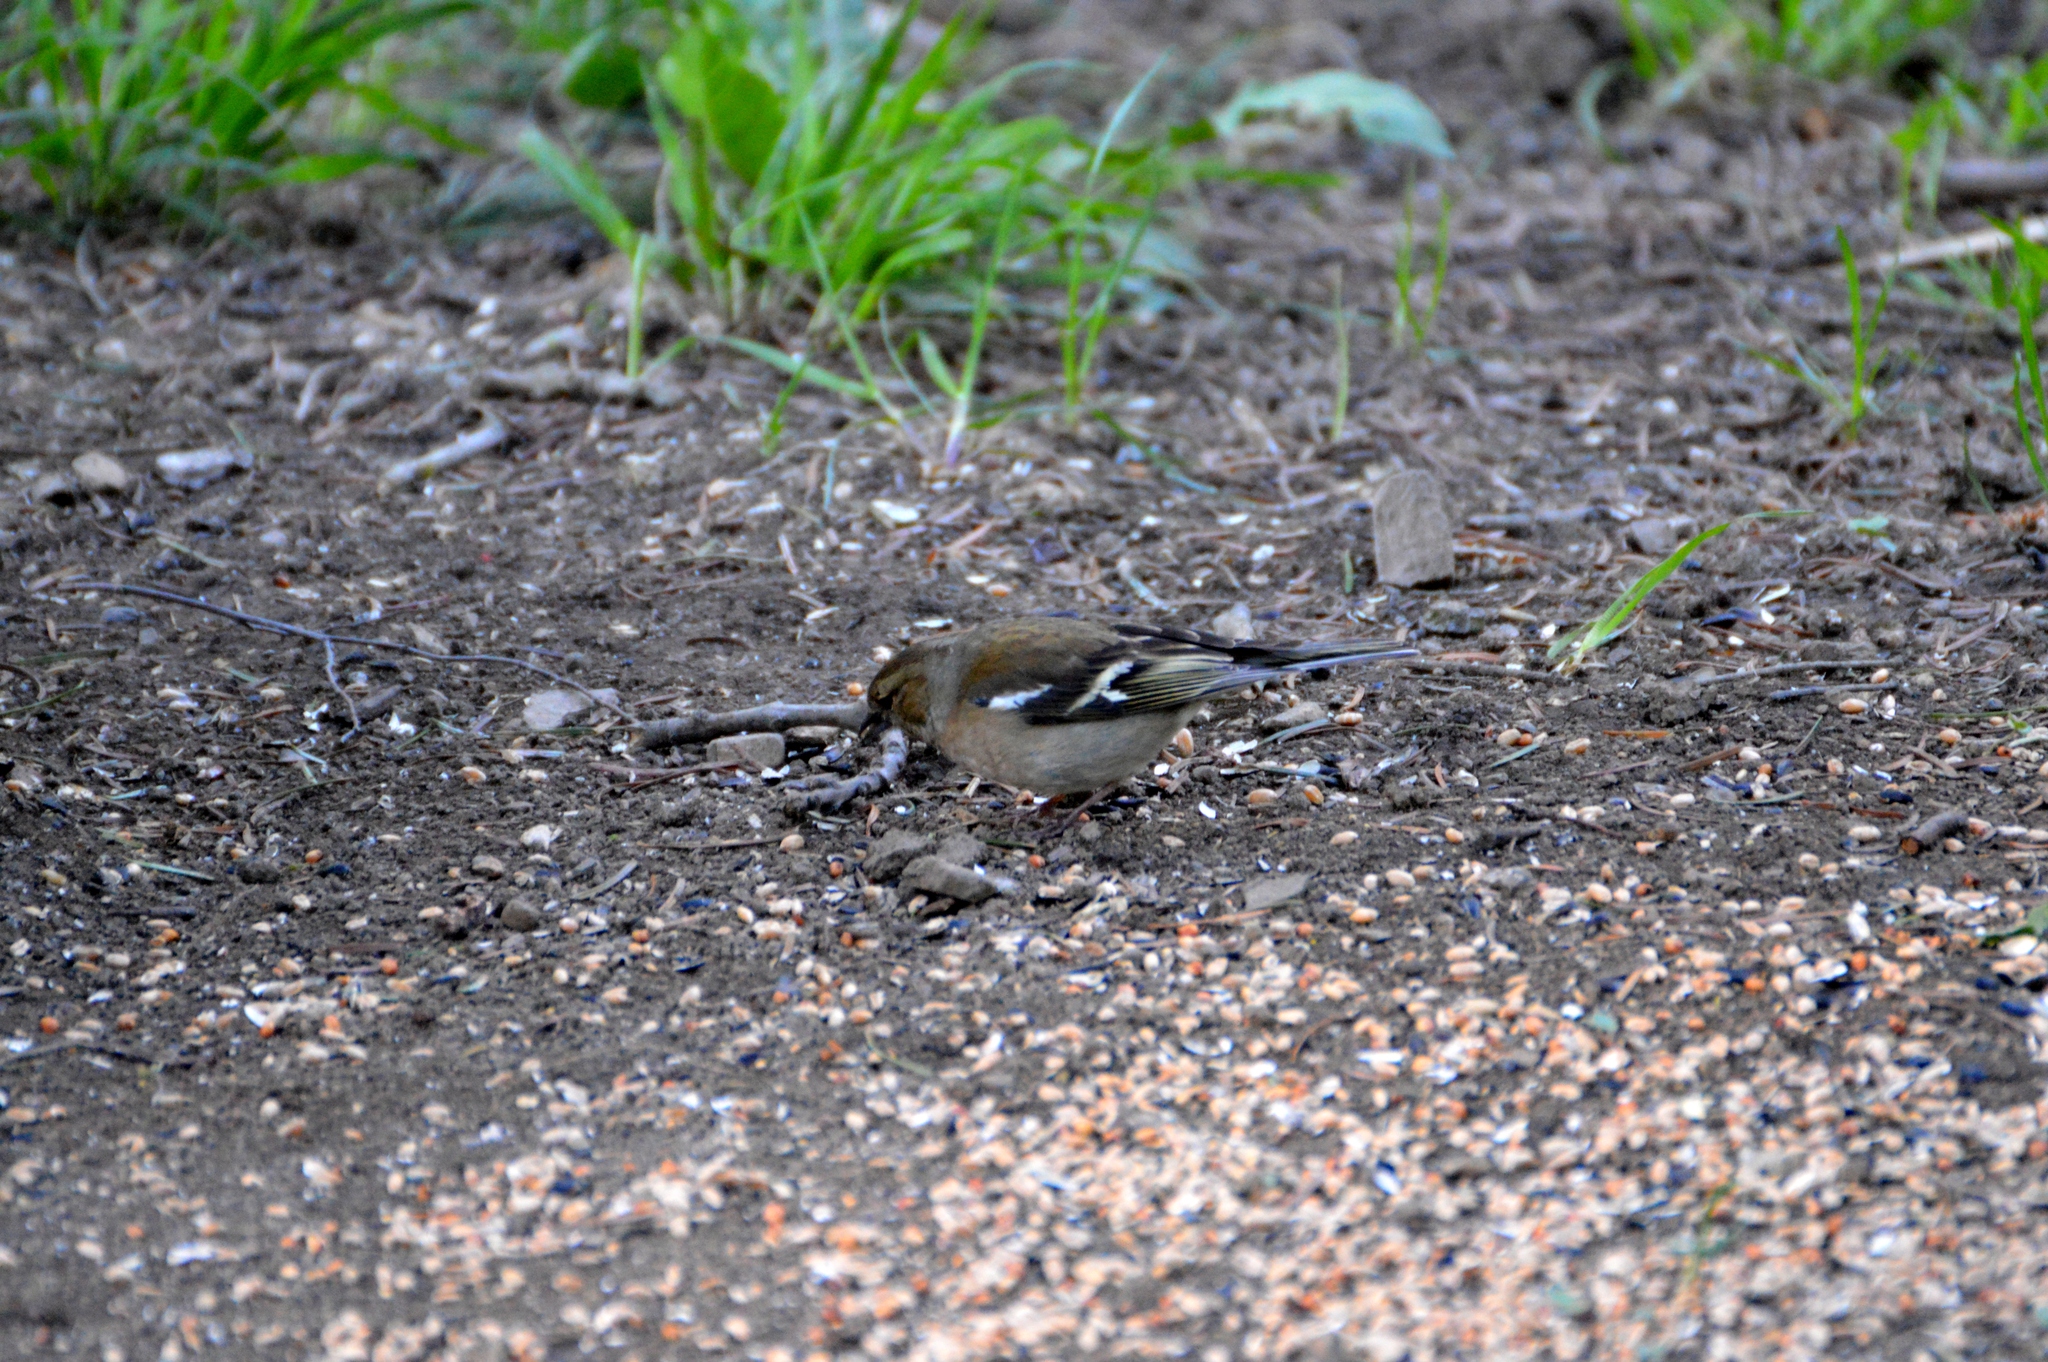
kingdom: Animalia
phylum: Chordata
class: Aves
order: Passeriformes
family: Fringillidae
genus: Fringilla
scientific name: Fringilla coelebs
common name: Common chaffinch
